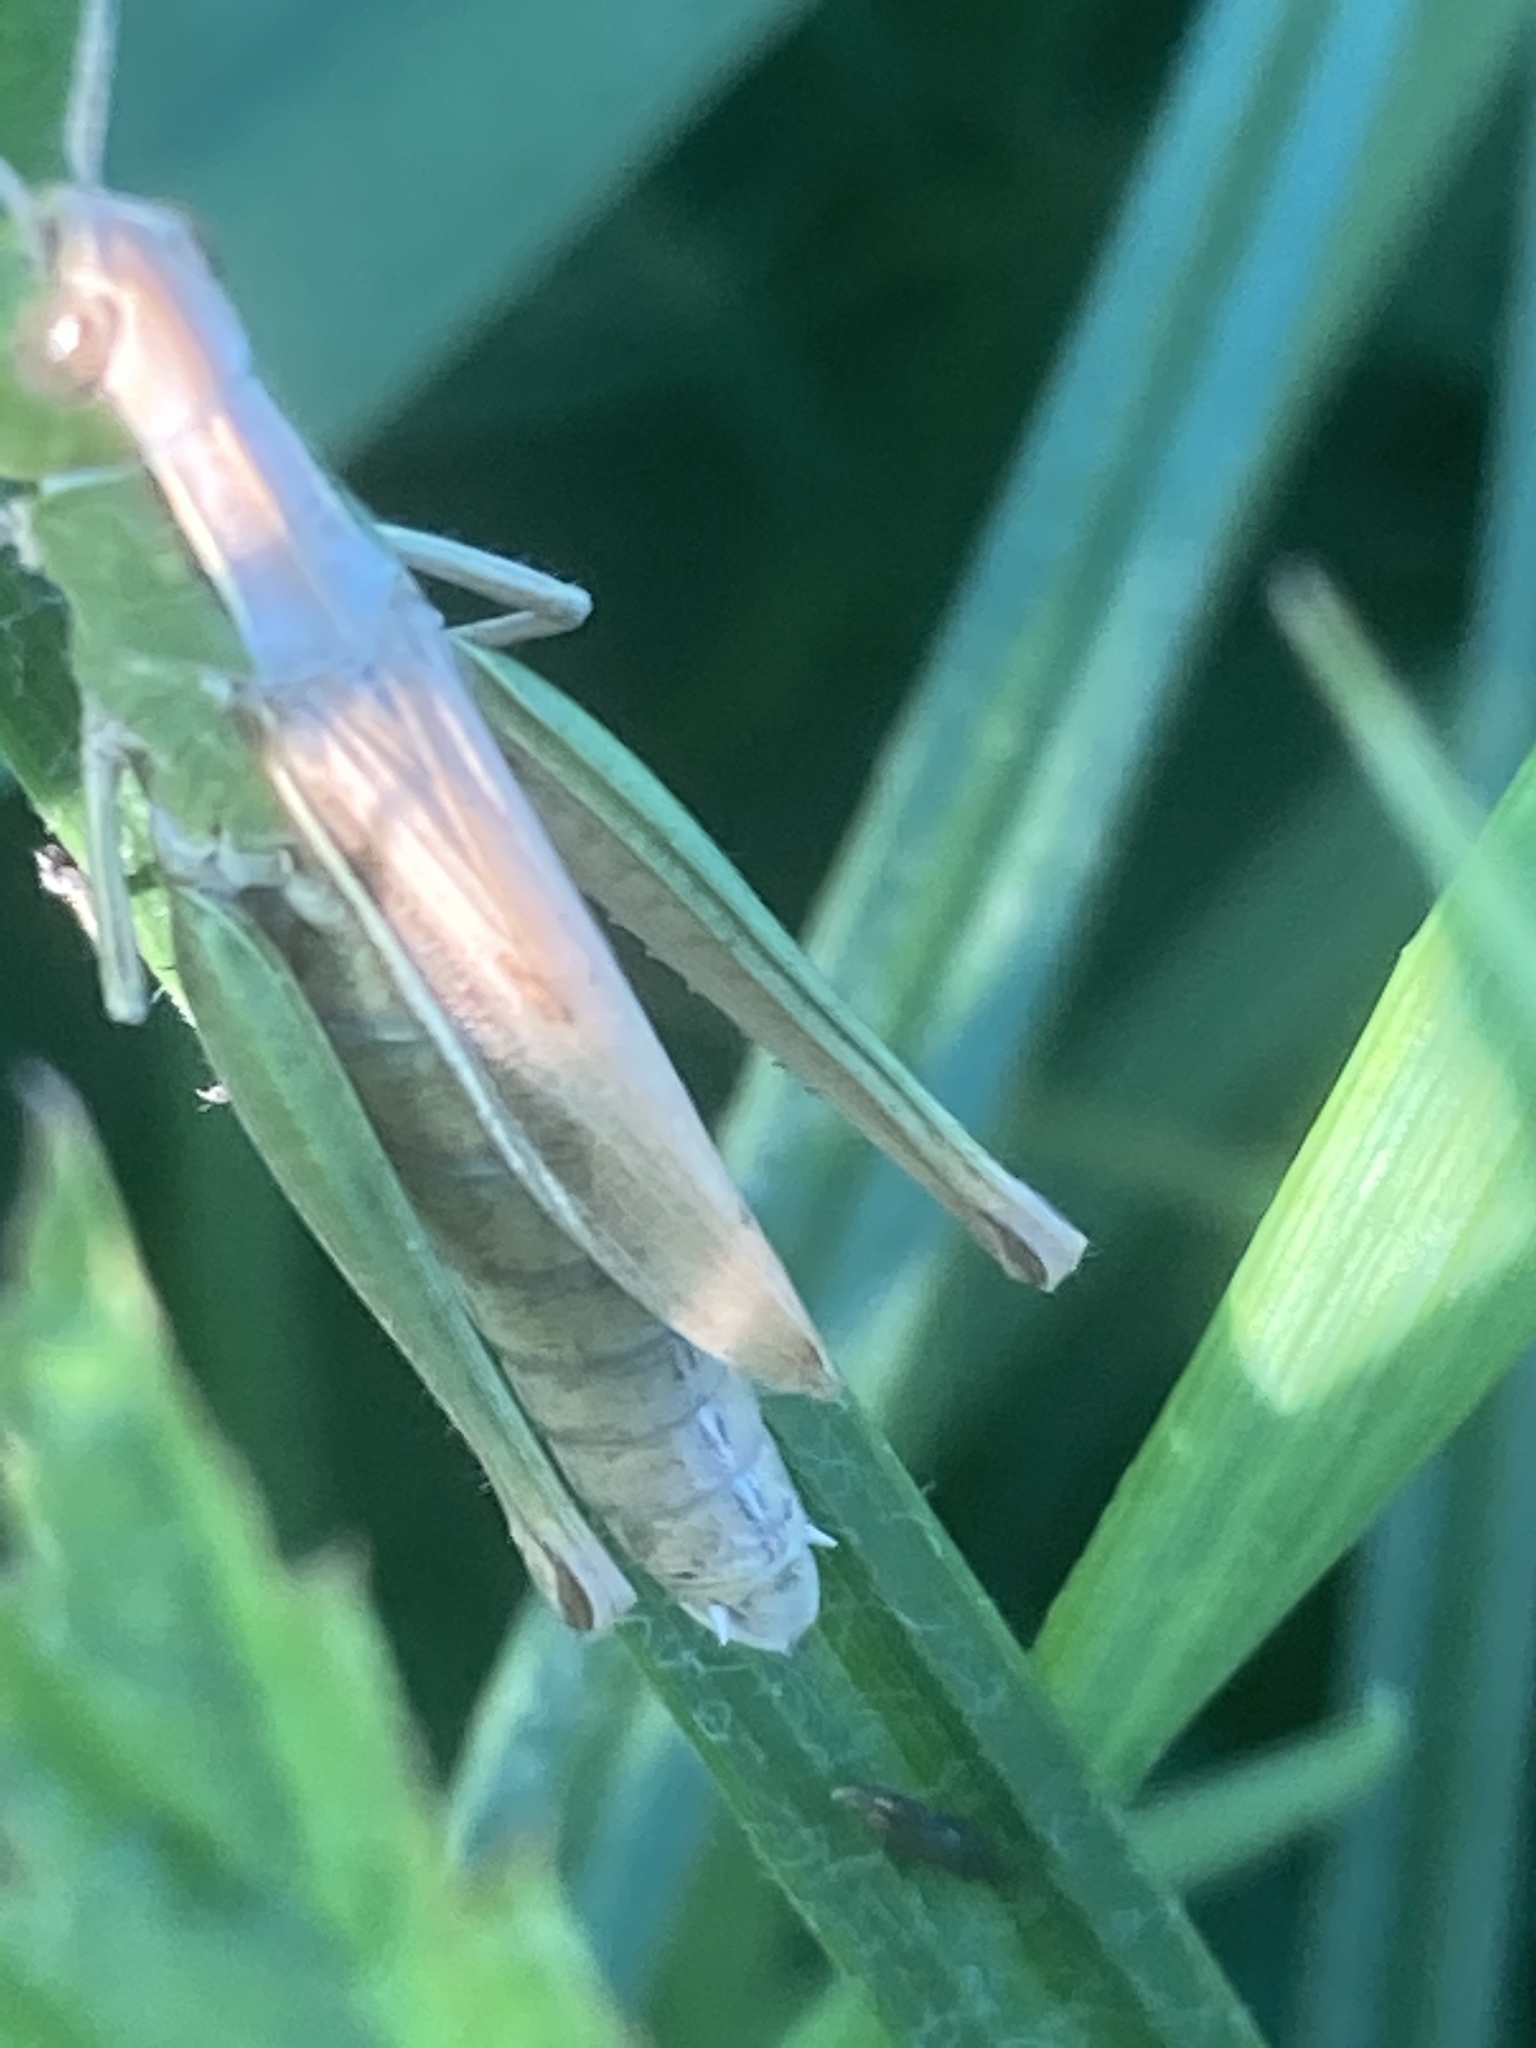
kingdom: Animalia
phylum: Arthropoda
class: Insecta
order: Orthoptera
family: Acrididae
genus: Chorthippus
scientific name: Chorthippus albomarginatus
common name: Lesser marsh grasshopper
